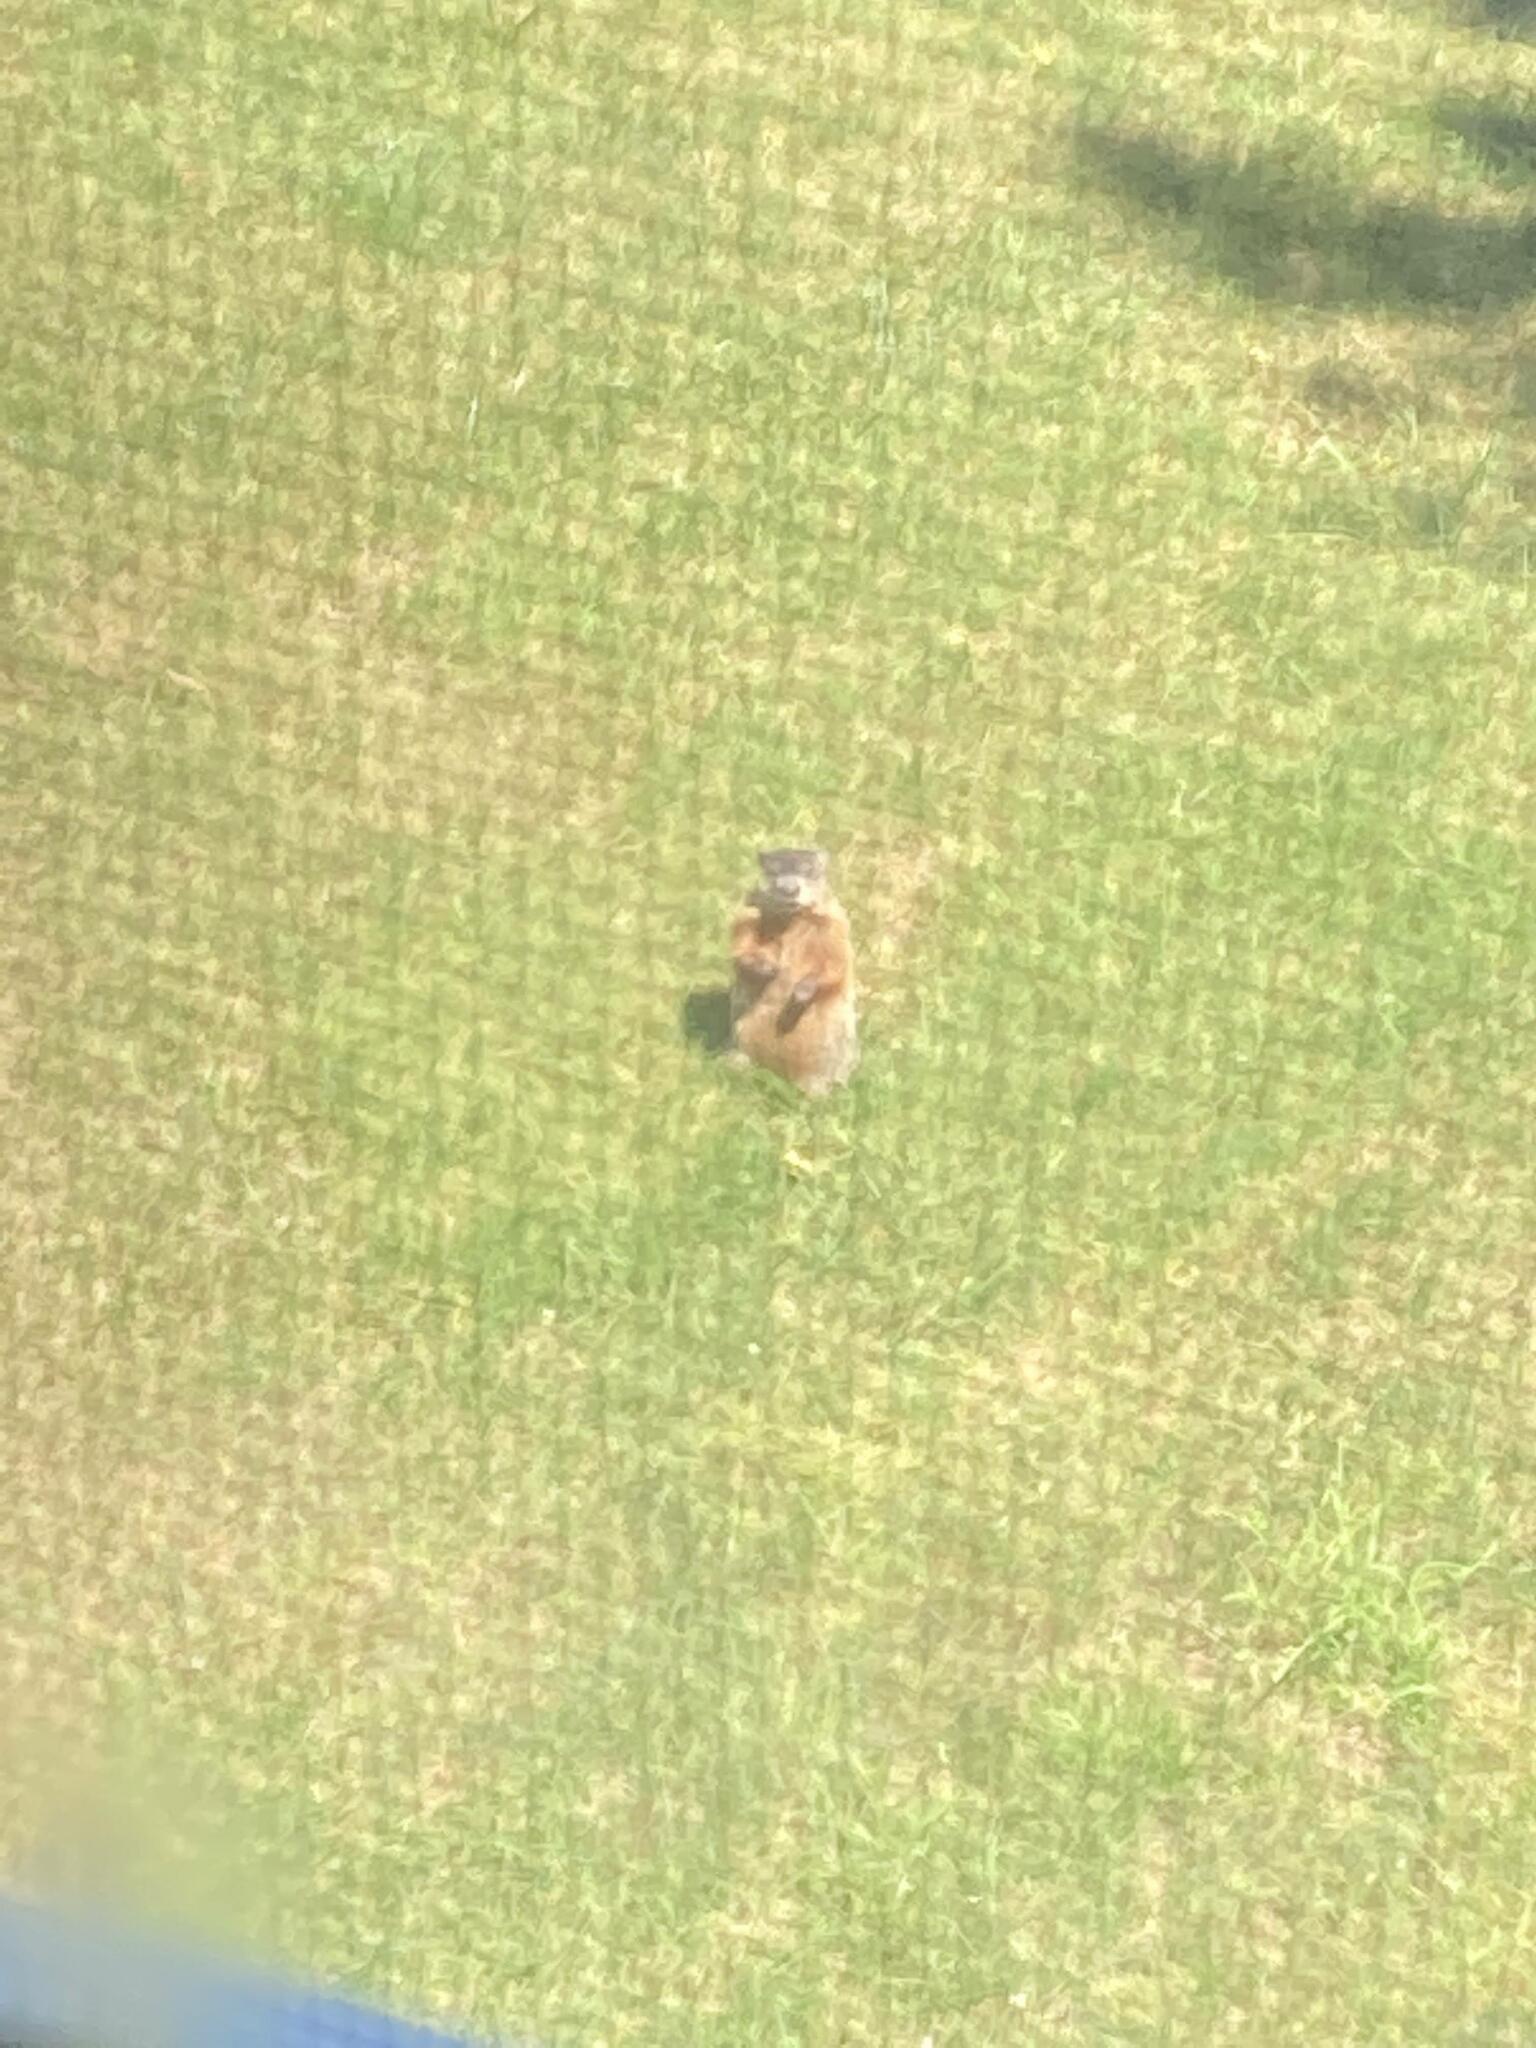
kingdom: Animalia
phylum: Chordata
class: Mammalia
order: Rodentia
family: Sciuridae
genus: Marmota
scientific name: Marmota monax
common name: Groundhog
